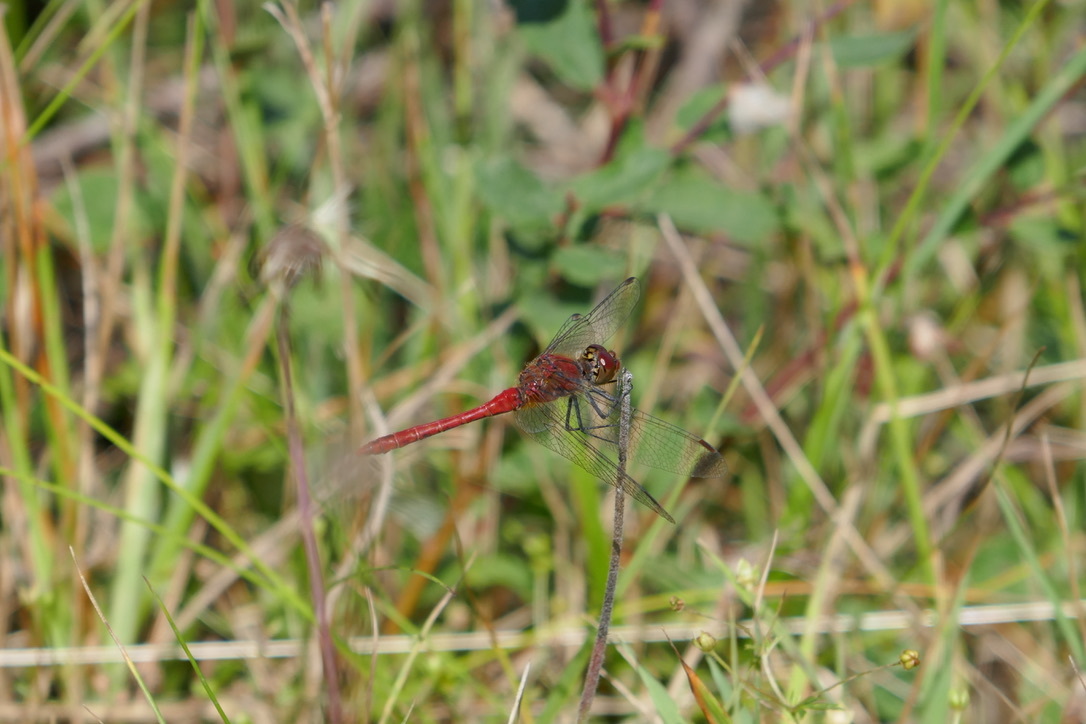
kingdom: Animalia
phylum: Arthropoda
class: Insecta
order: Odonata
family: Libellulidae
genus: Sympetrum
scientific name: Sympetrum sanguineum
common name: Ruddy darter
